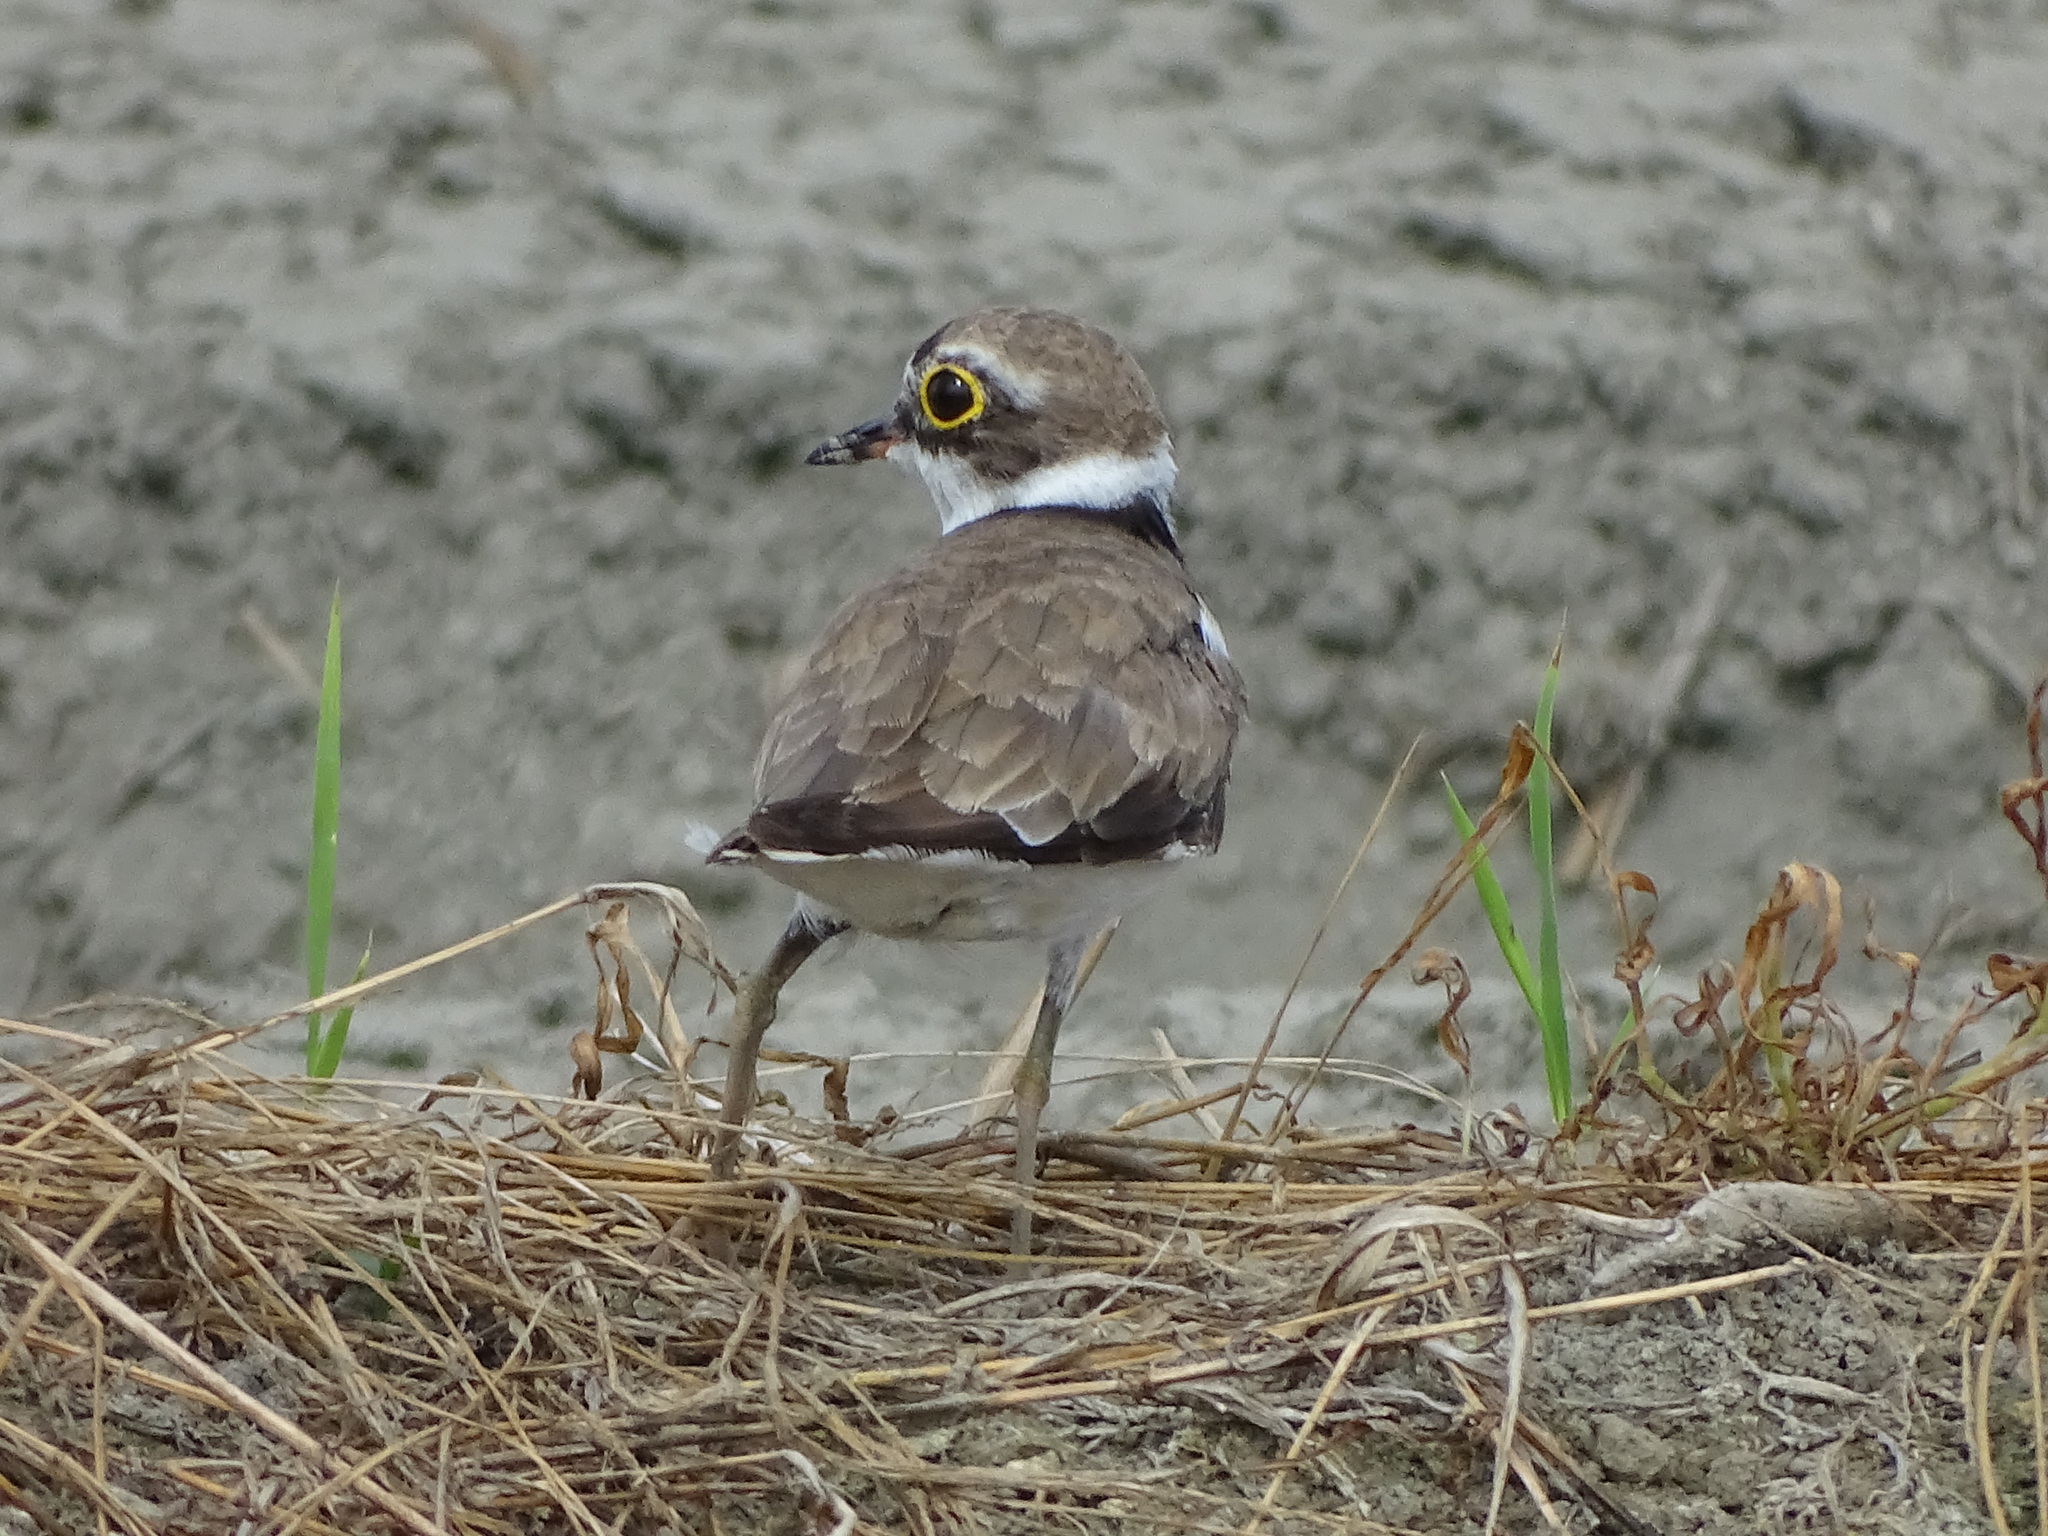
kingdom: Animalia
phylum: Chordata
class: Aves
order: Charadriiformes
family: Charadriidae
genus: Charadrius
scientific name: Charadrius dubius
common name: Little ringed plover
